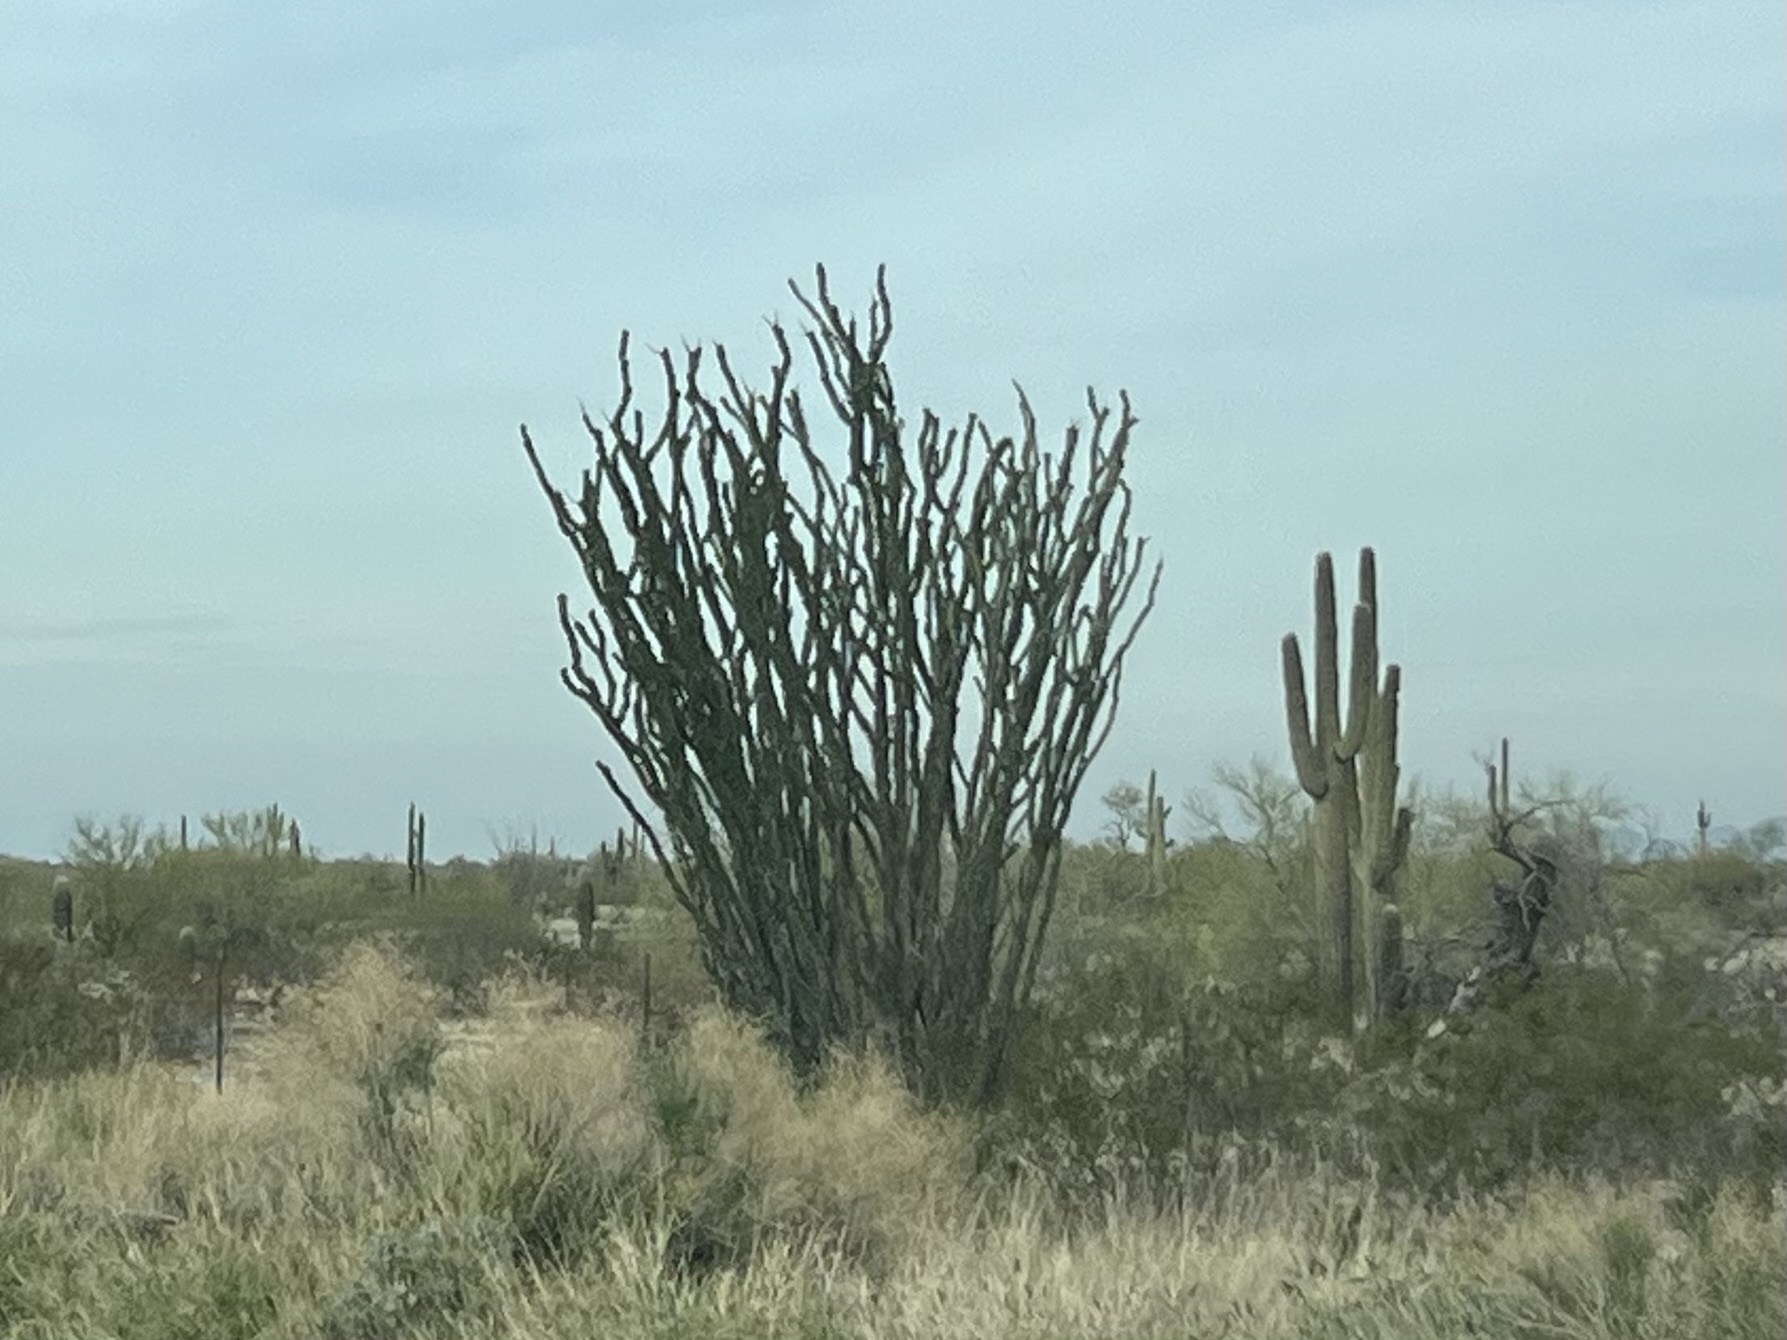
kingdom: Plantae
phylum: Tracheophyta
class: Magnoliopsida
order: Ericales
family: Fouquieriaceae
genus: Fouquieria
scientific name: Fouquieria splendens
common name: Vine-cactus
